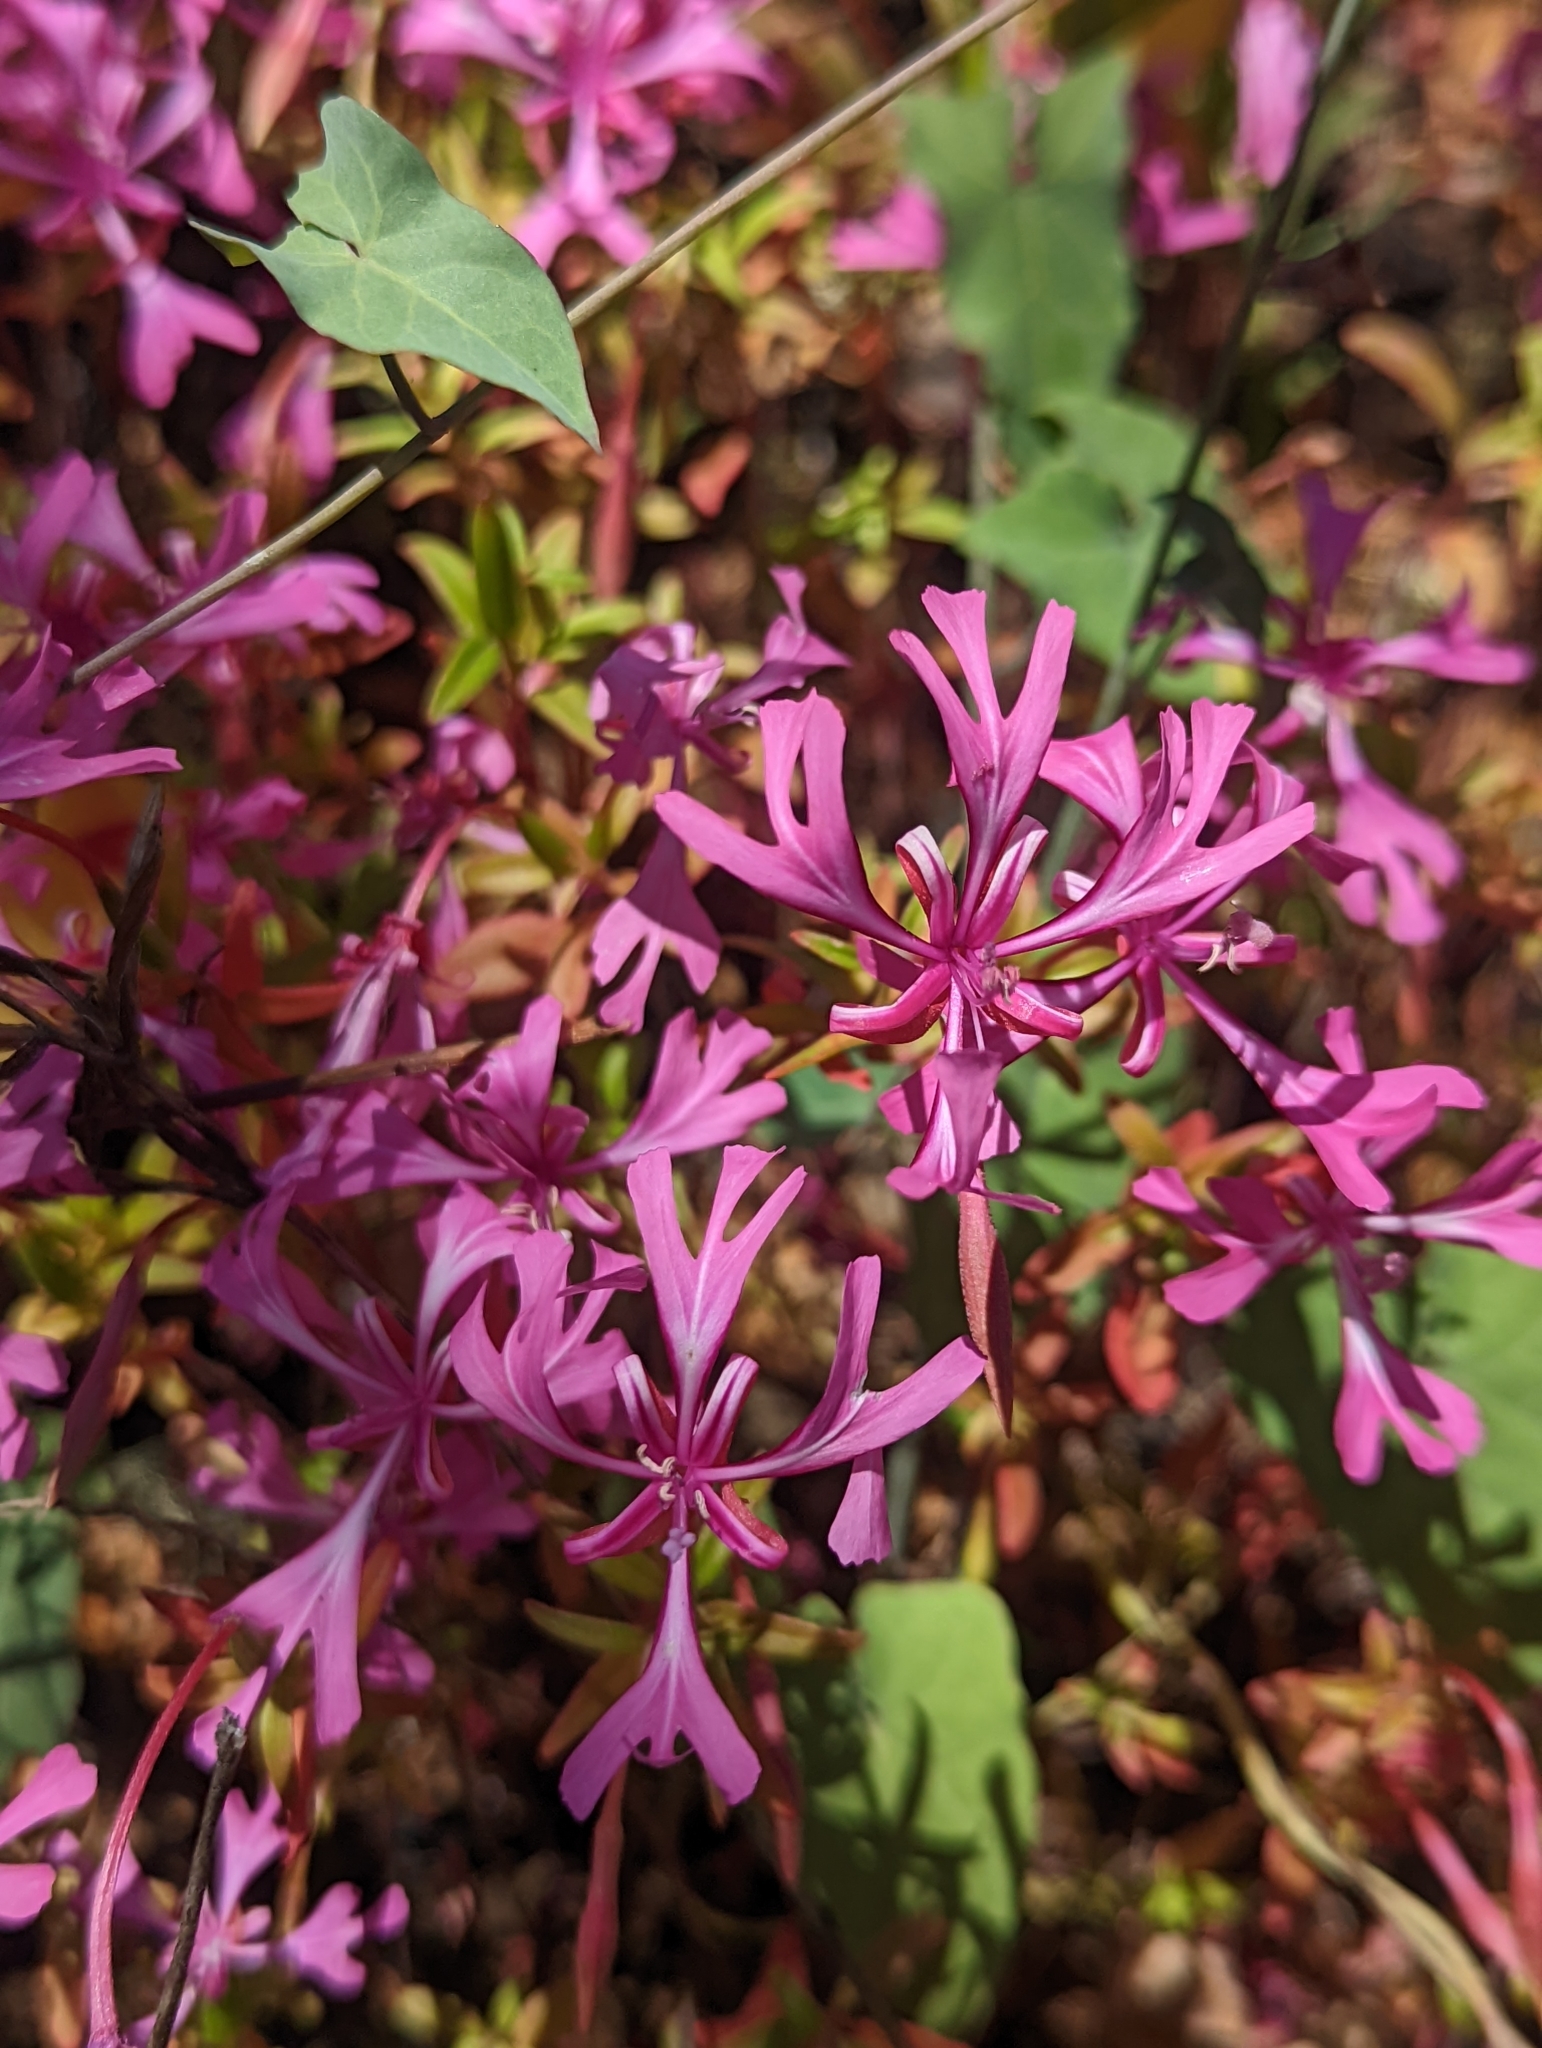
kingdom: Plantae
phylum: Tracheophyta
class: Magnoliopsida
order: Myrtales
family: Onagraceae
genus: Clarkia
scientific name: Clarkia concinna
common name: Red-ribbons
